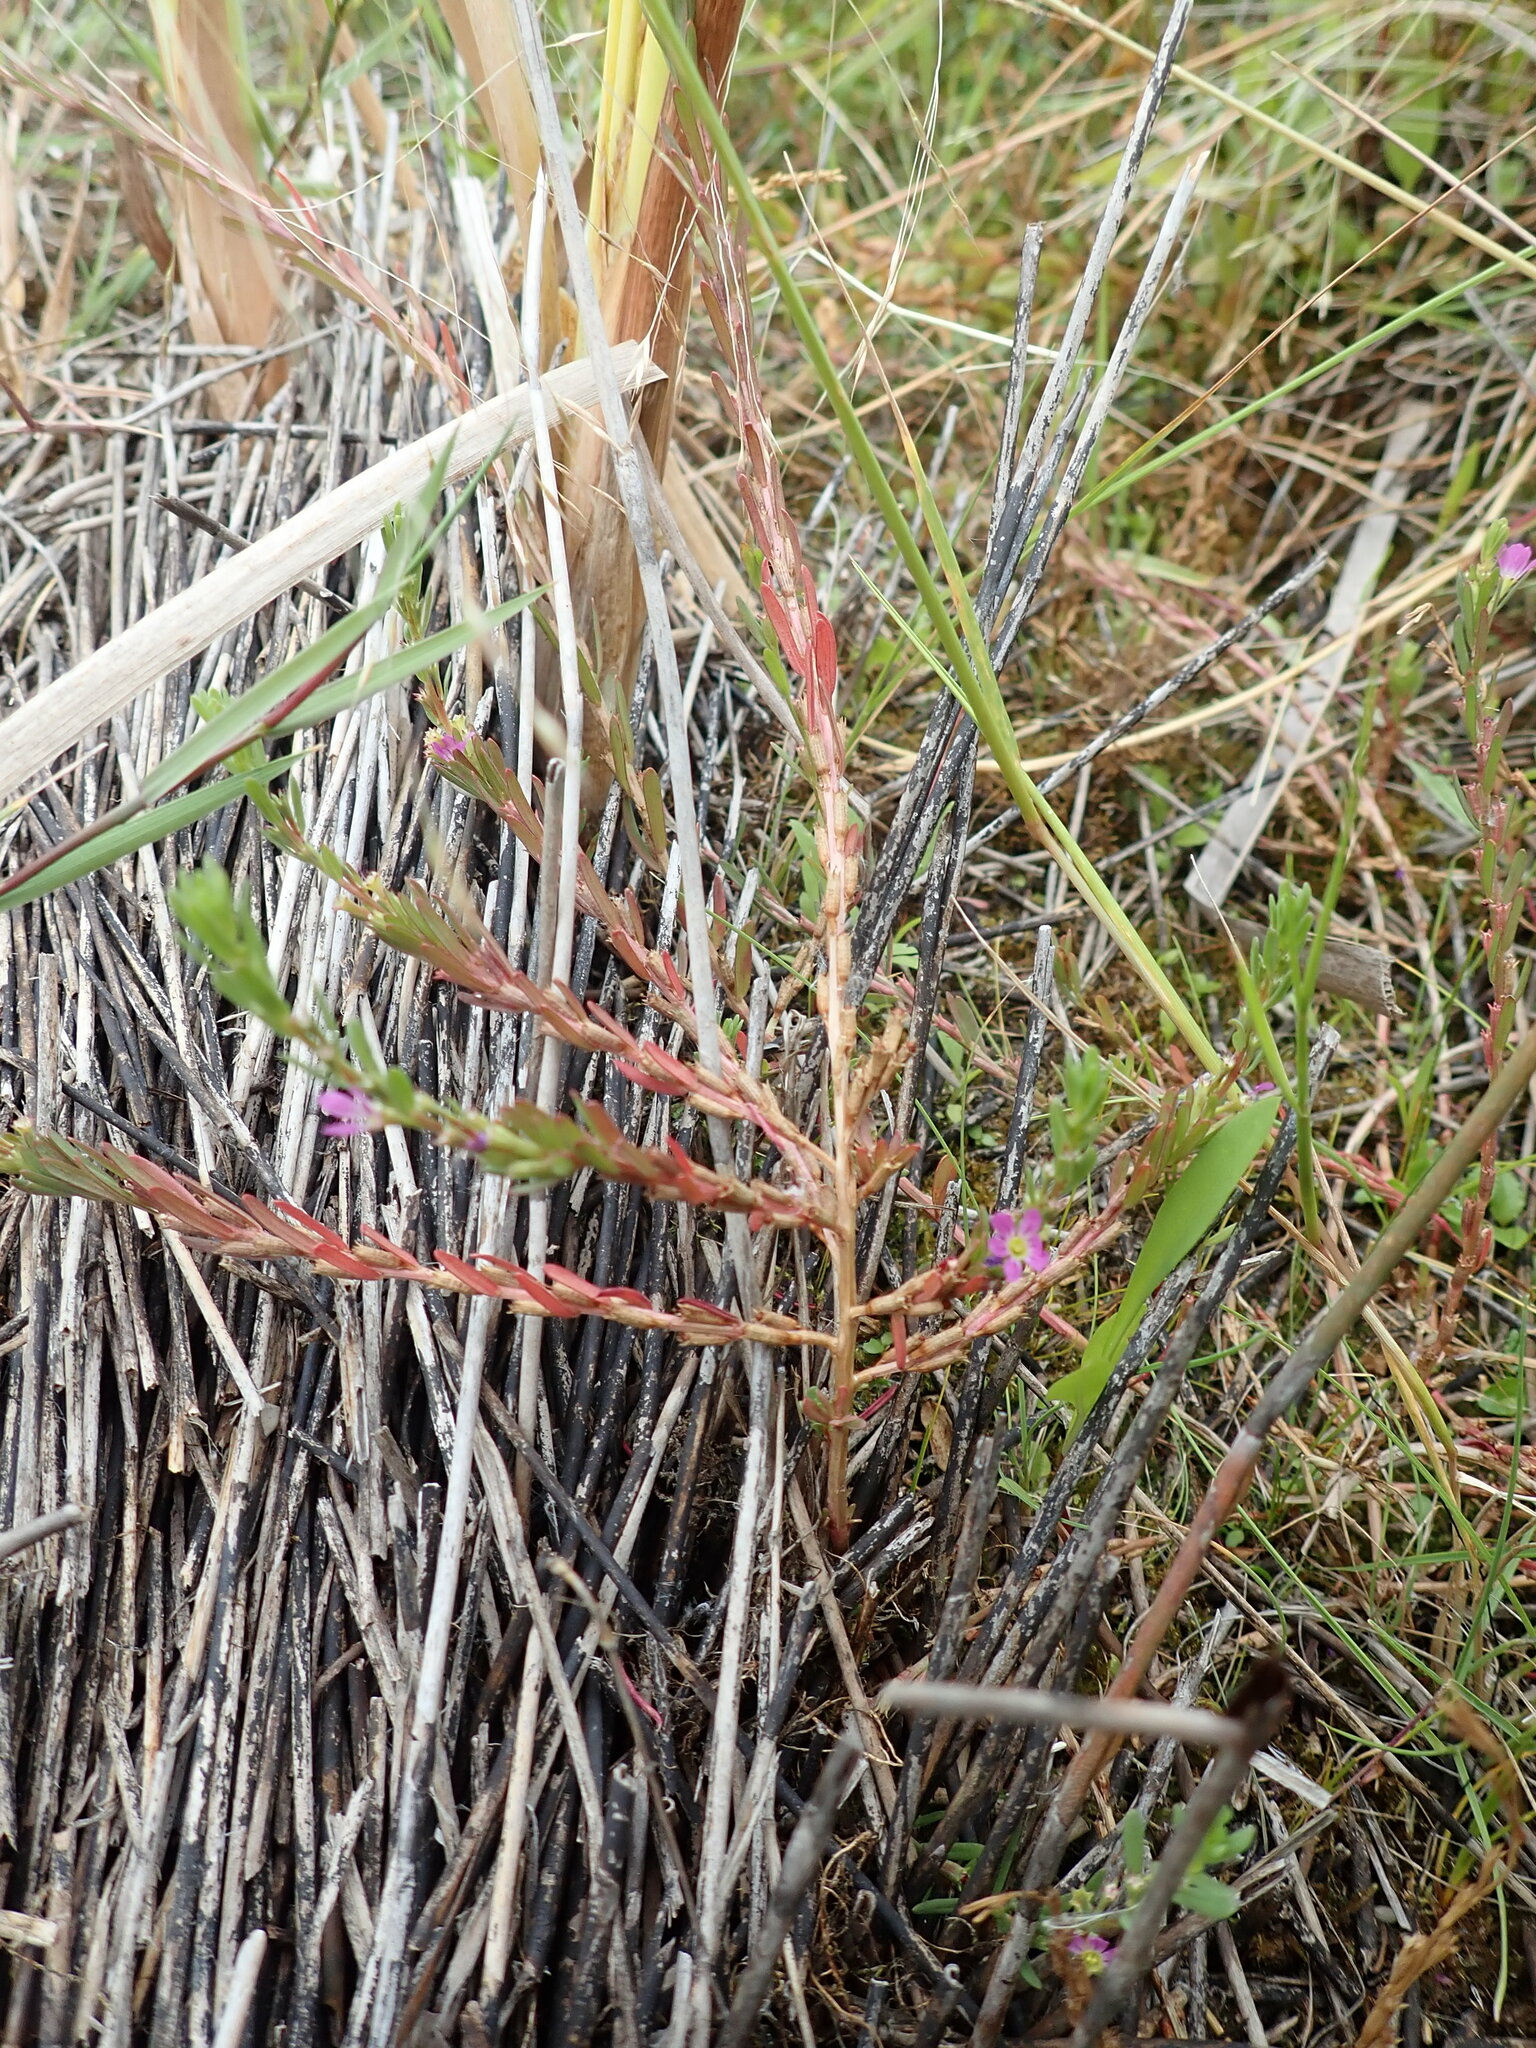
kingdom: Plantae
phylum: Tracheophyta
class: Magnoliopsida
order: Myrtales
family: Lythraceae
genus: Lythrum
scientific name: Lythrum hyssopifolia
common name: Grass-poly
